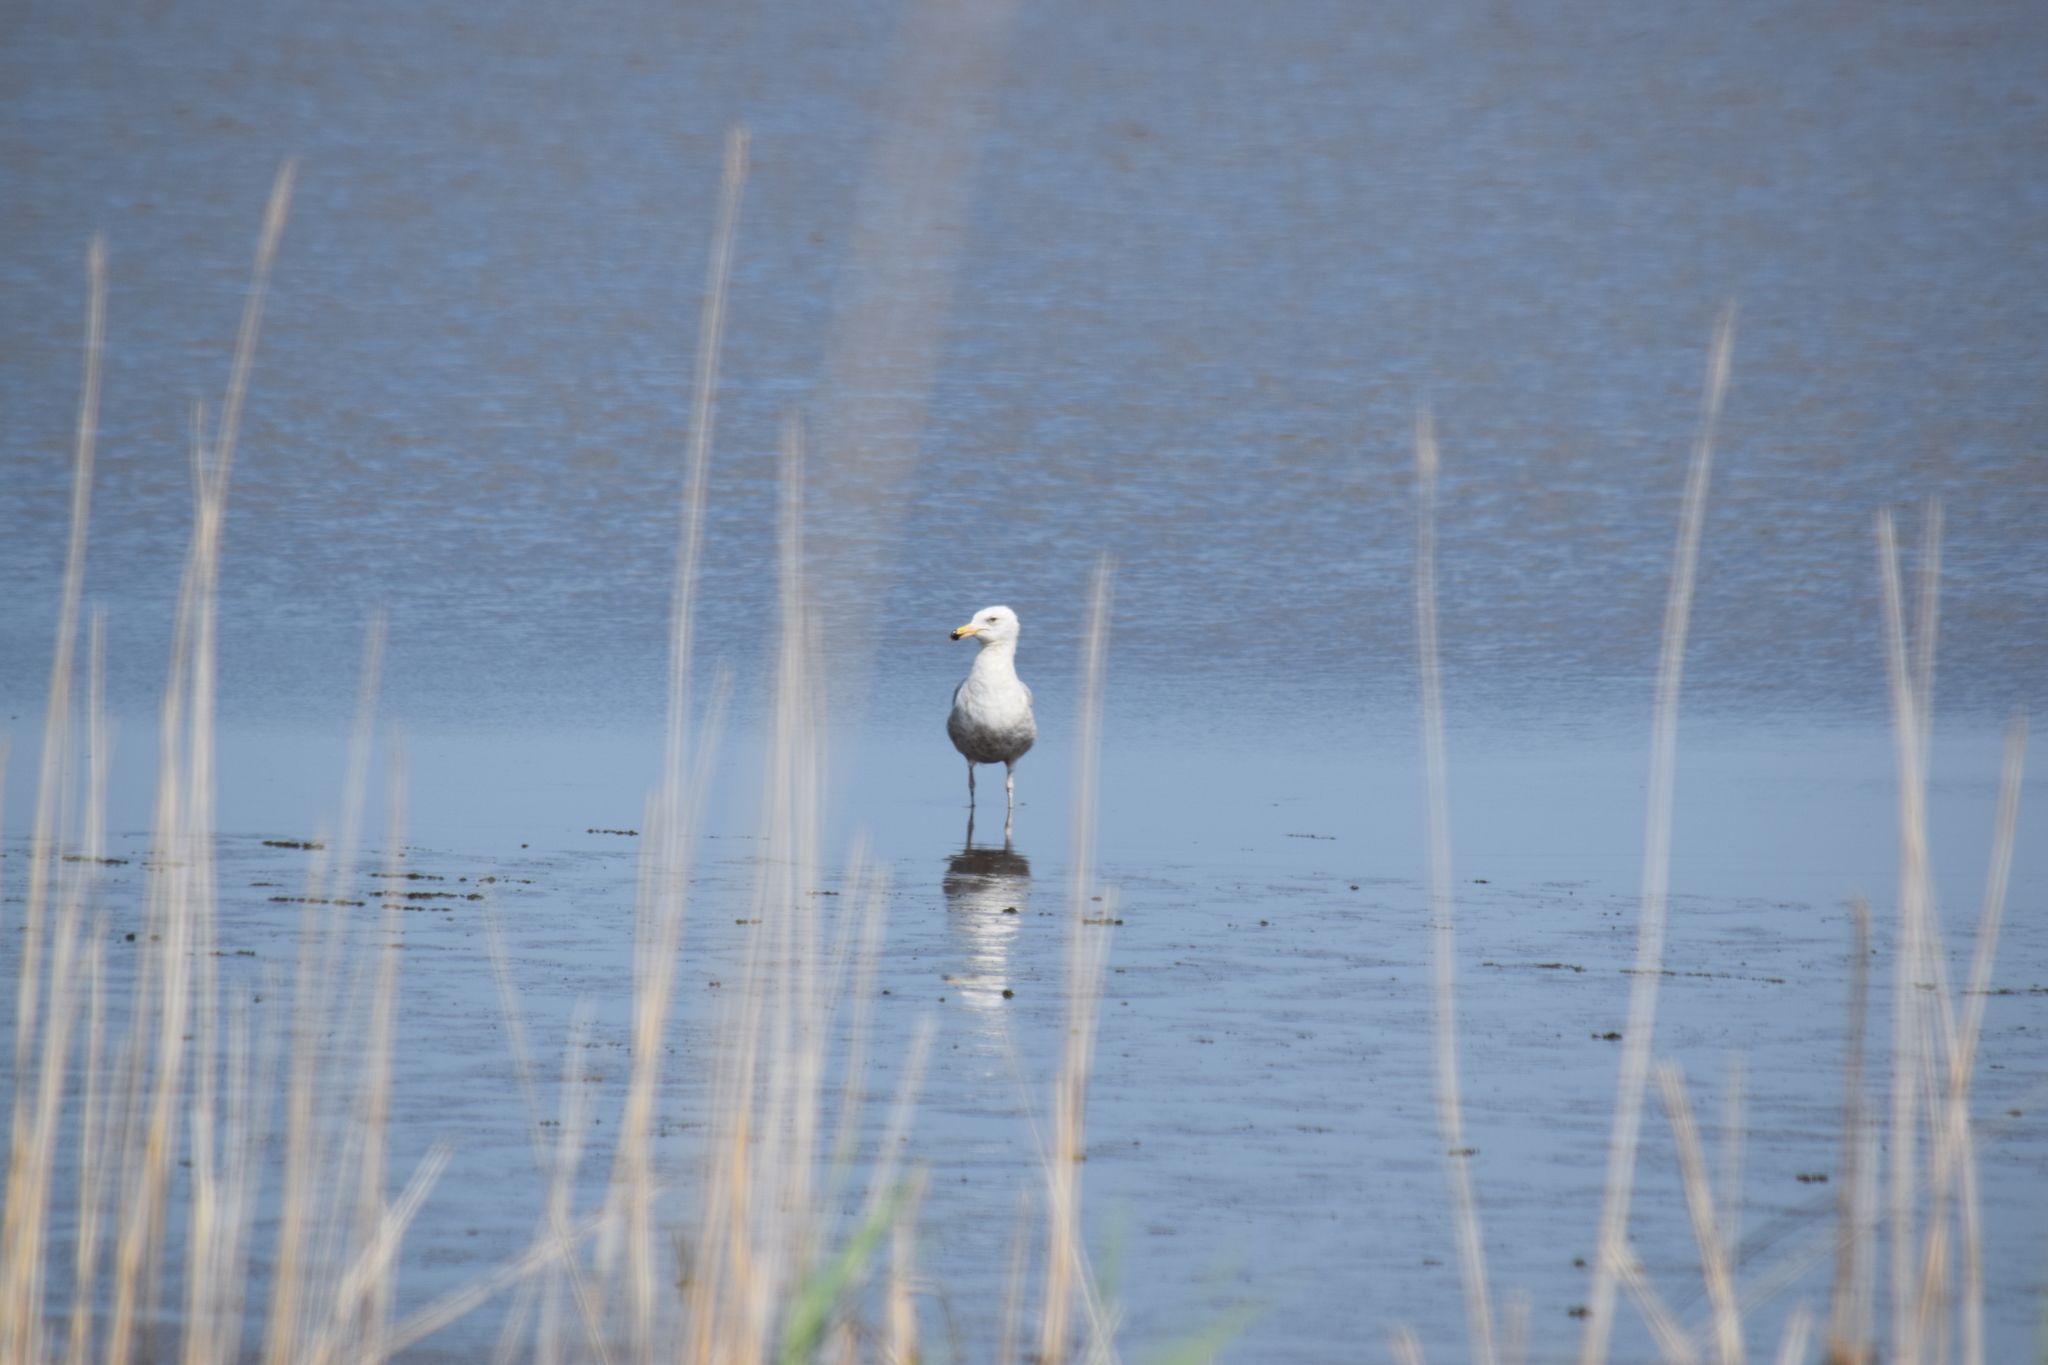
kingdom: Animalia
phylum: Chordata
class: Aves
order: Charadriiformes
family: Laridae
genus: Larus
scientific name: Larus delawarensis
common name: Ring-billed gull
